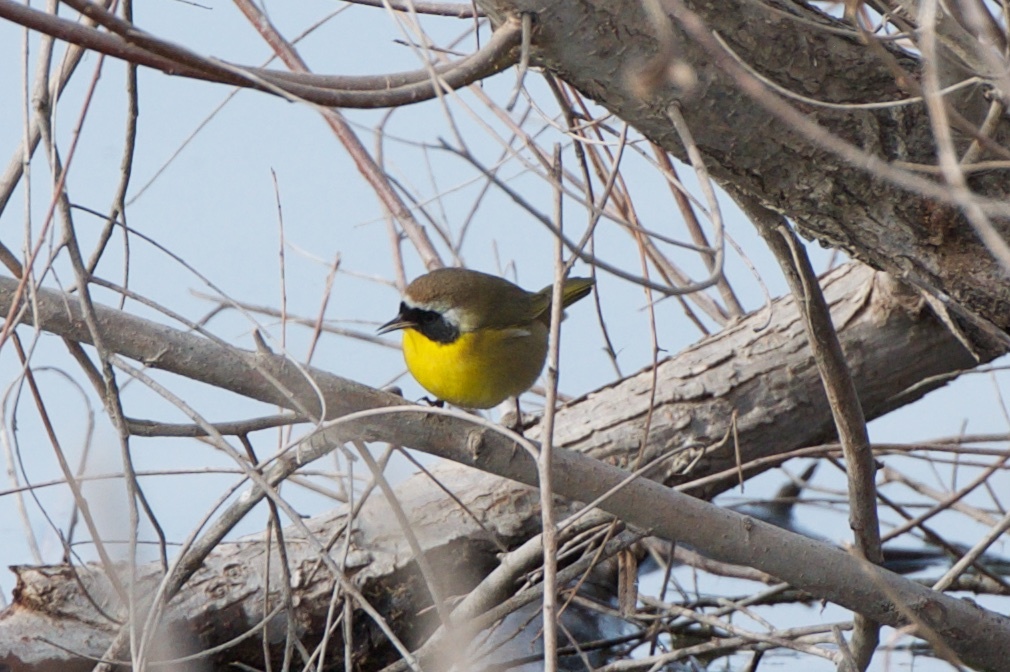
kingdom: Animalia
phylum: Chordata
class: Aves
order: Passeriformes
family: Parulidae
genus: Geothlypis
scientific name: Geothlypis trichas
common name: Common yellowthroat
